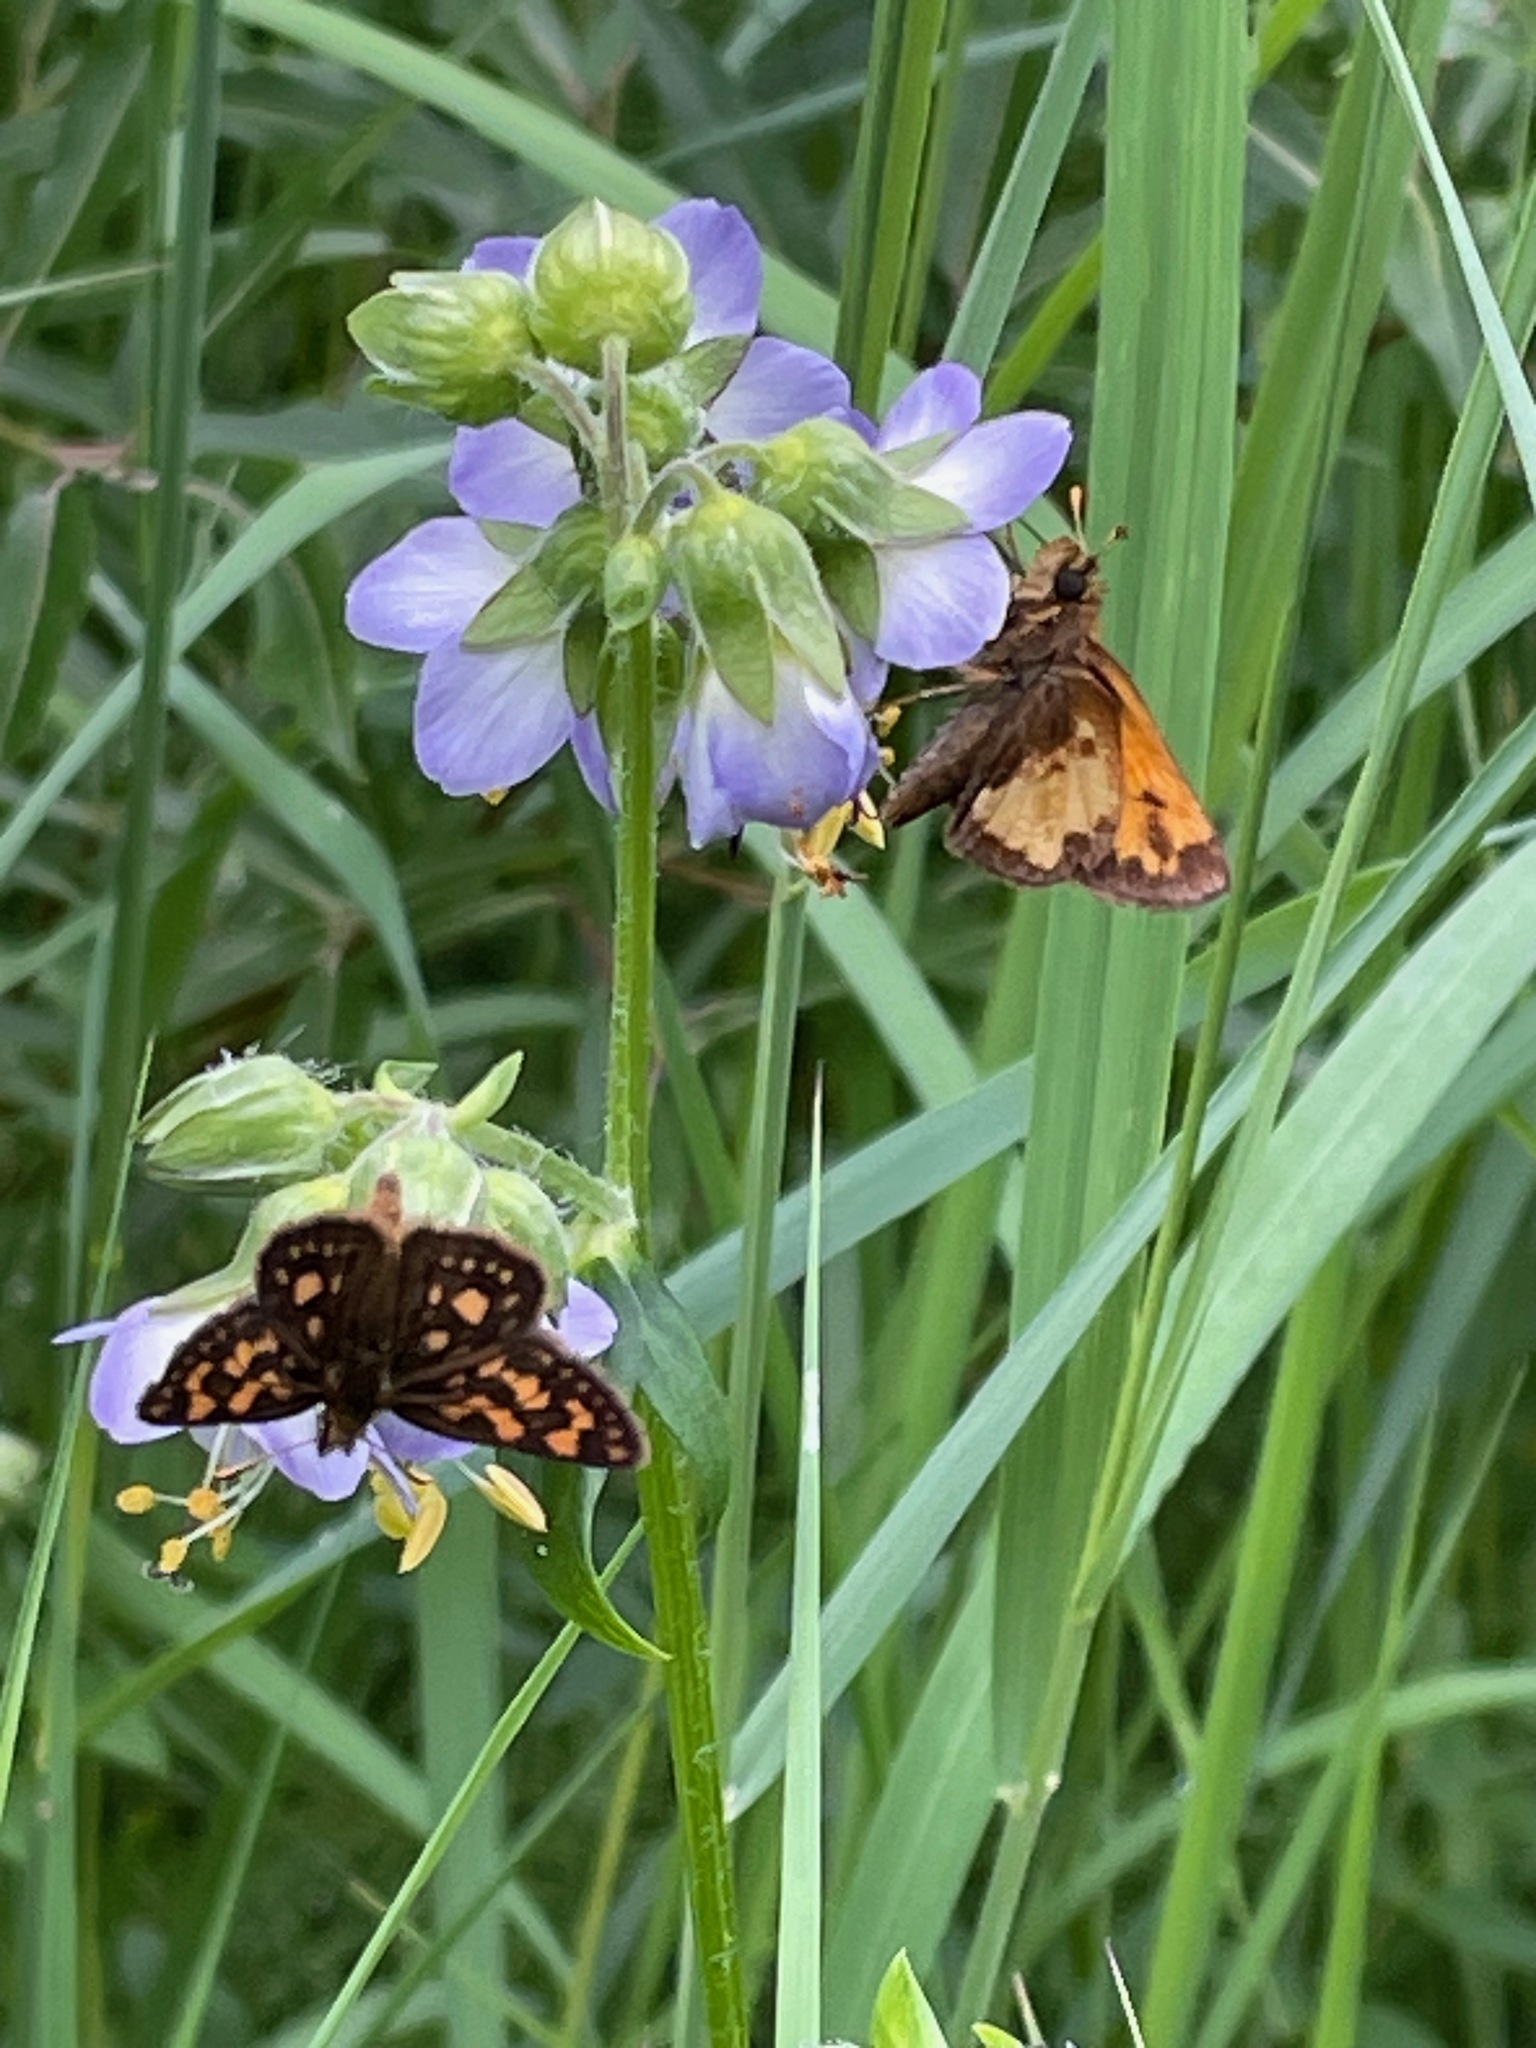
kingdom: Animalia
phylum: Arthropoda
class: Insecta
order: Lepidoptera
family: Hesperiidae
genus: Carterocephalus
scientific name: Carterocephalus mandan
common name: Arctic skipperling
